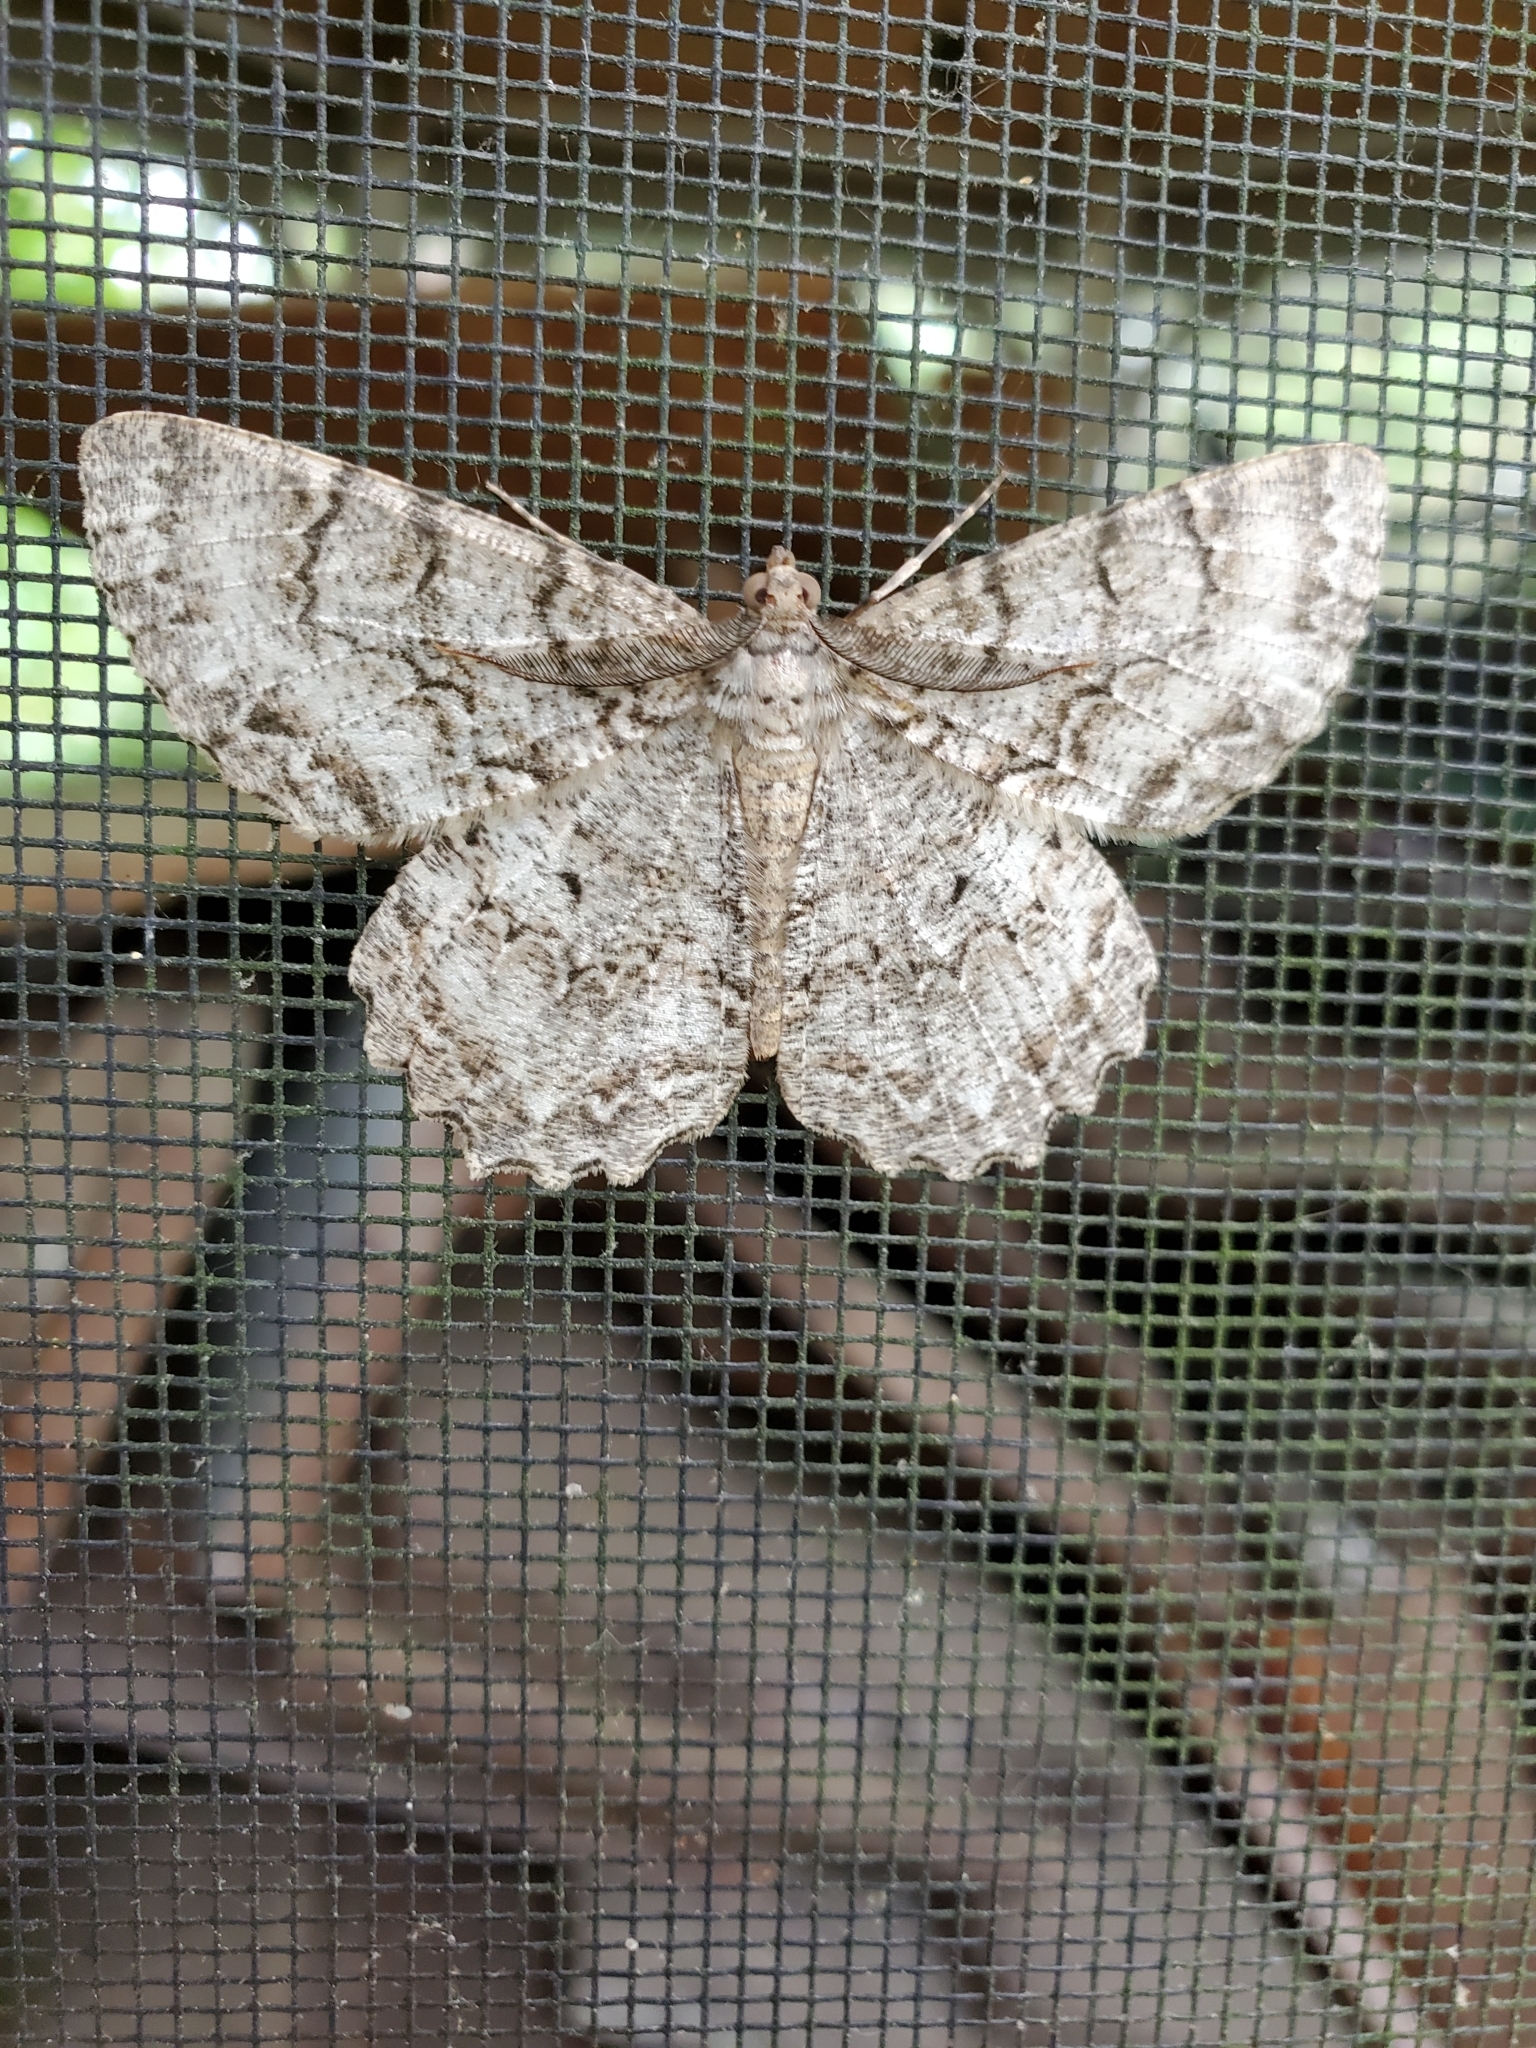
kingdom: Animalia
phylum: Arthropoda
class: Insecta
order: Lepidoptera
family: Geometridae
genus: Epimecis
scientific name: Epimecis hortaria
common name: Tulip-tree beauty
